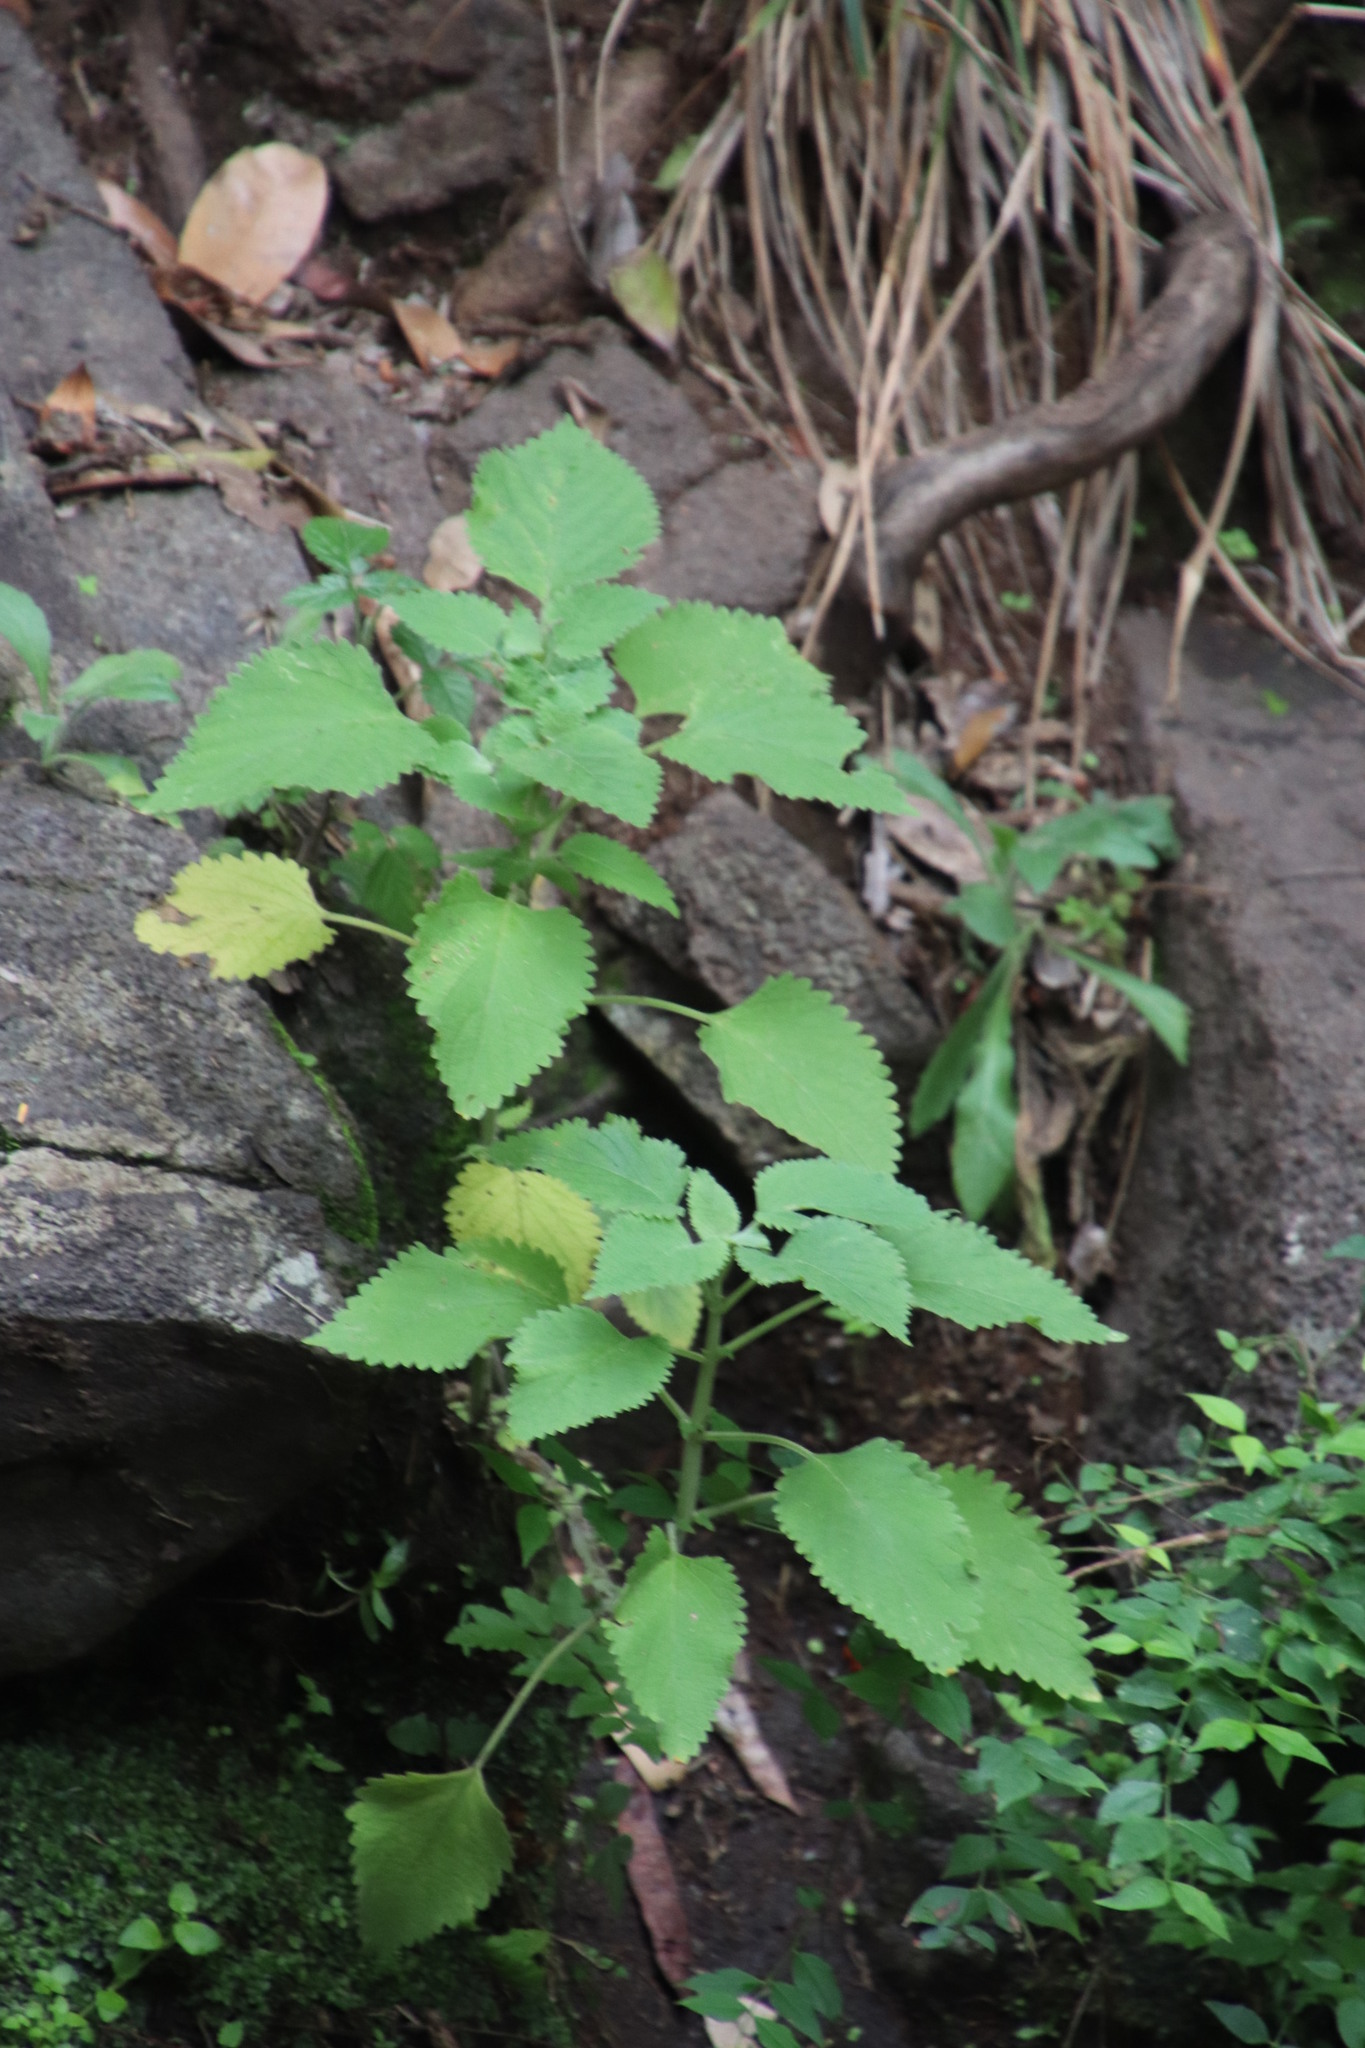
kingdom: Plantae
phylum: Tracheophyta
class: Magnoliopsida
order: Lamiales
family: Lamiaceae
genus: Coleus
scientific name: Coleus hereroensis
